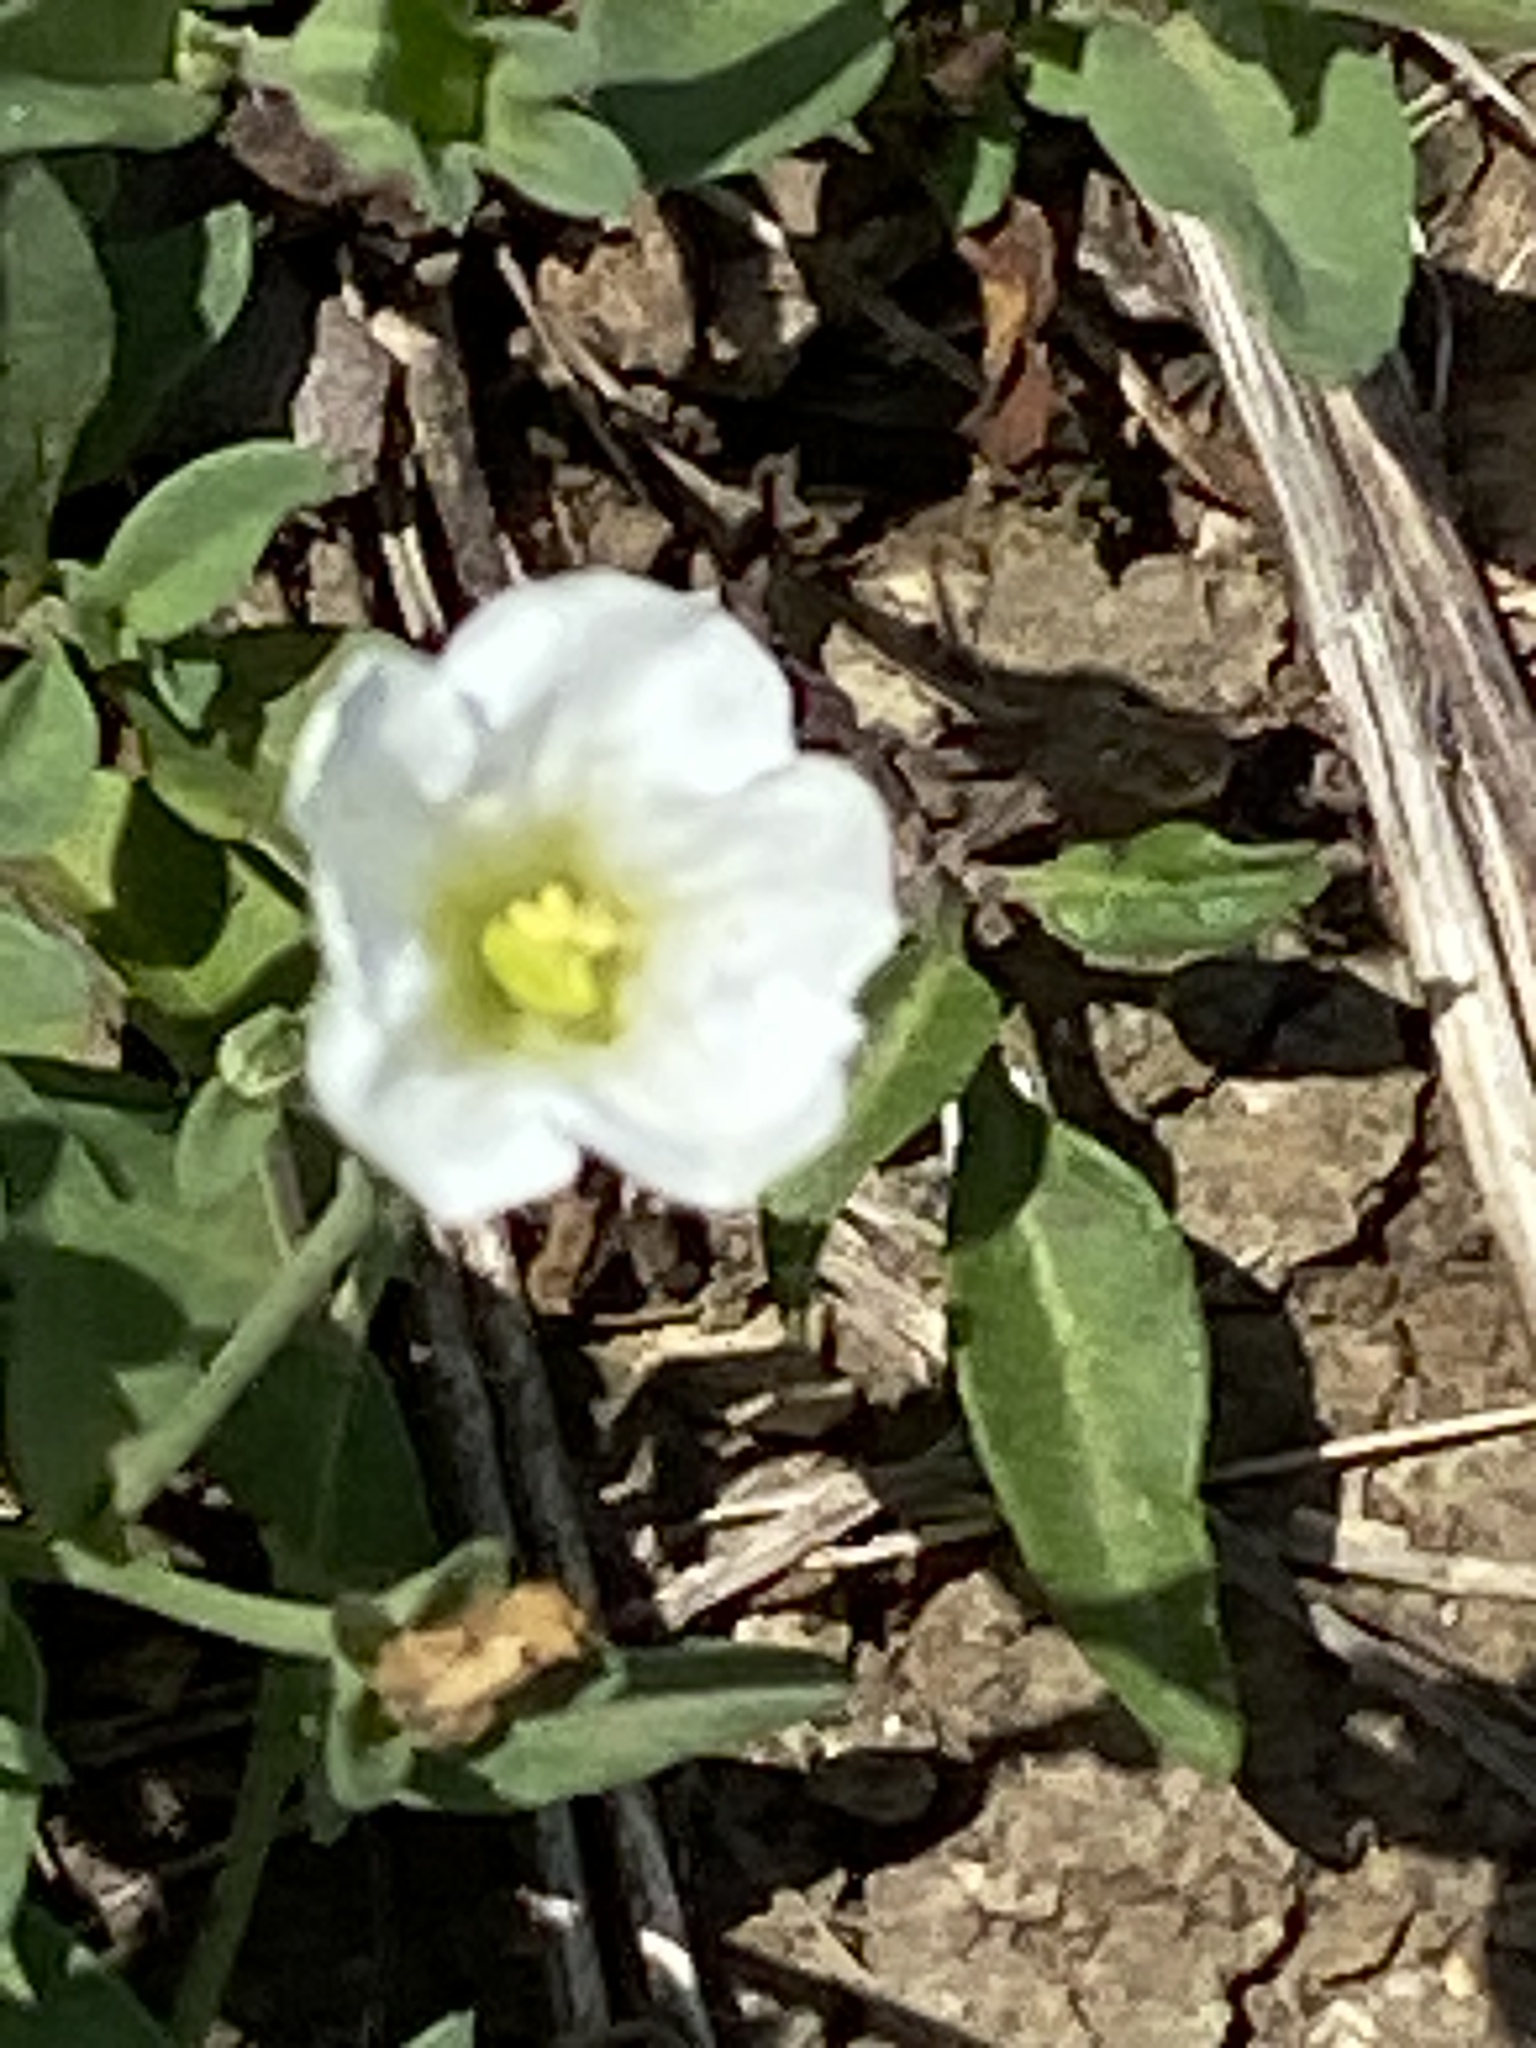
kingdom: Plantae
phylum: Tracheophyta
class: Magnoliopsida
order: Solanales
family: Solanaceae
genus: Salpiglossis
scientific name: Salpiglossis erecta
